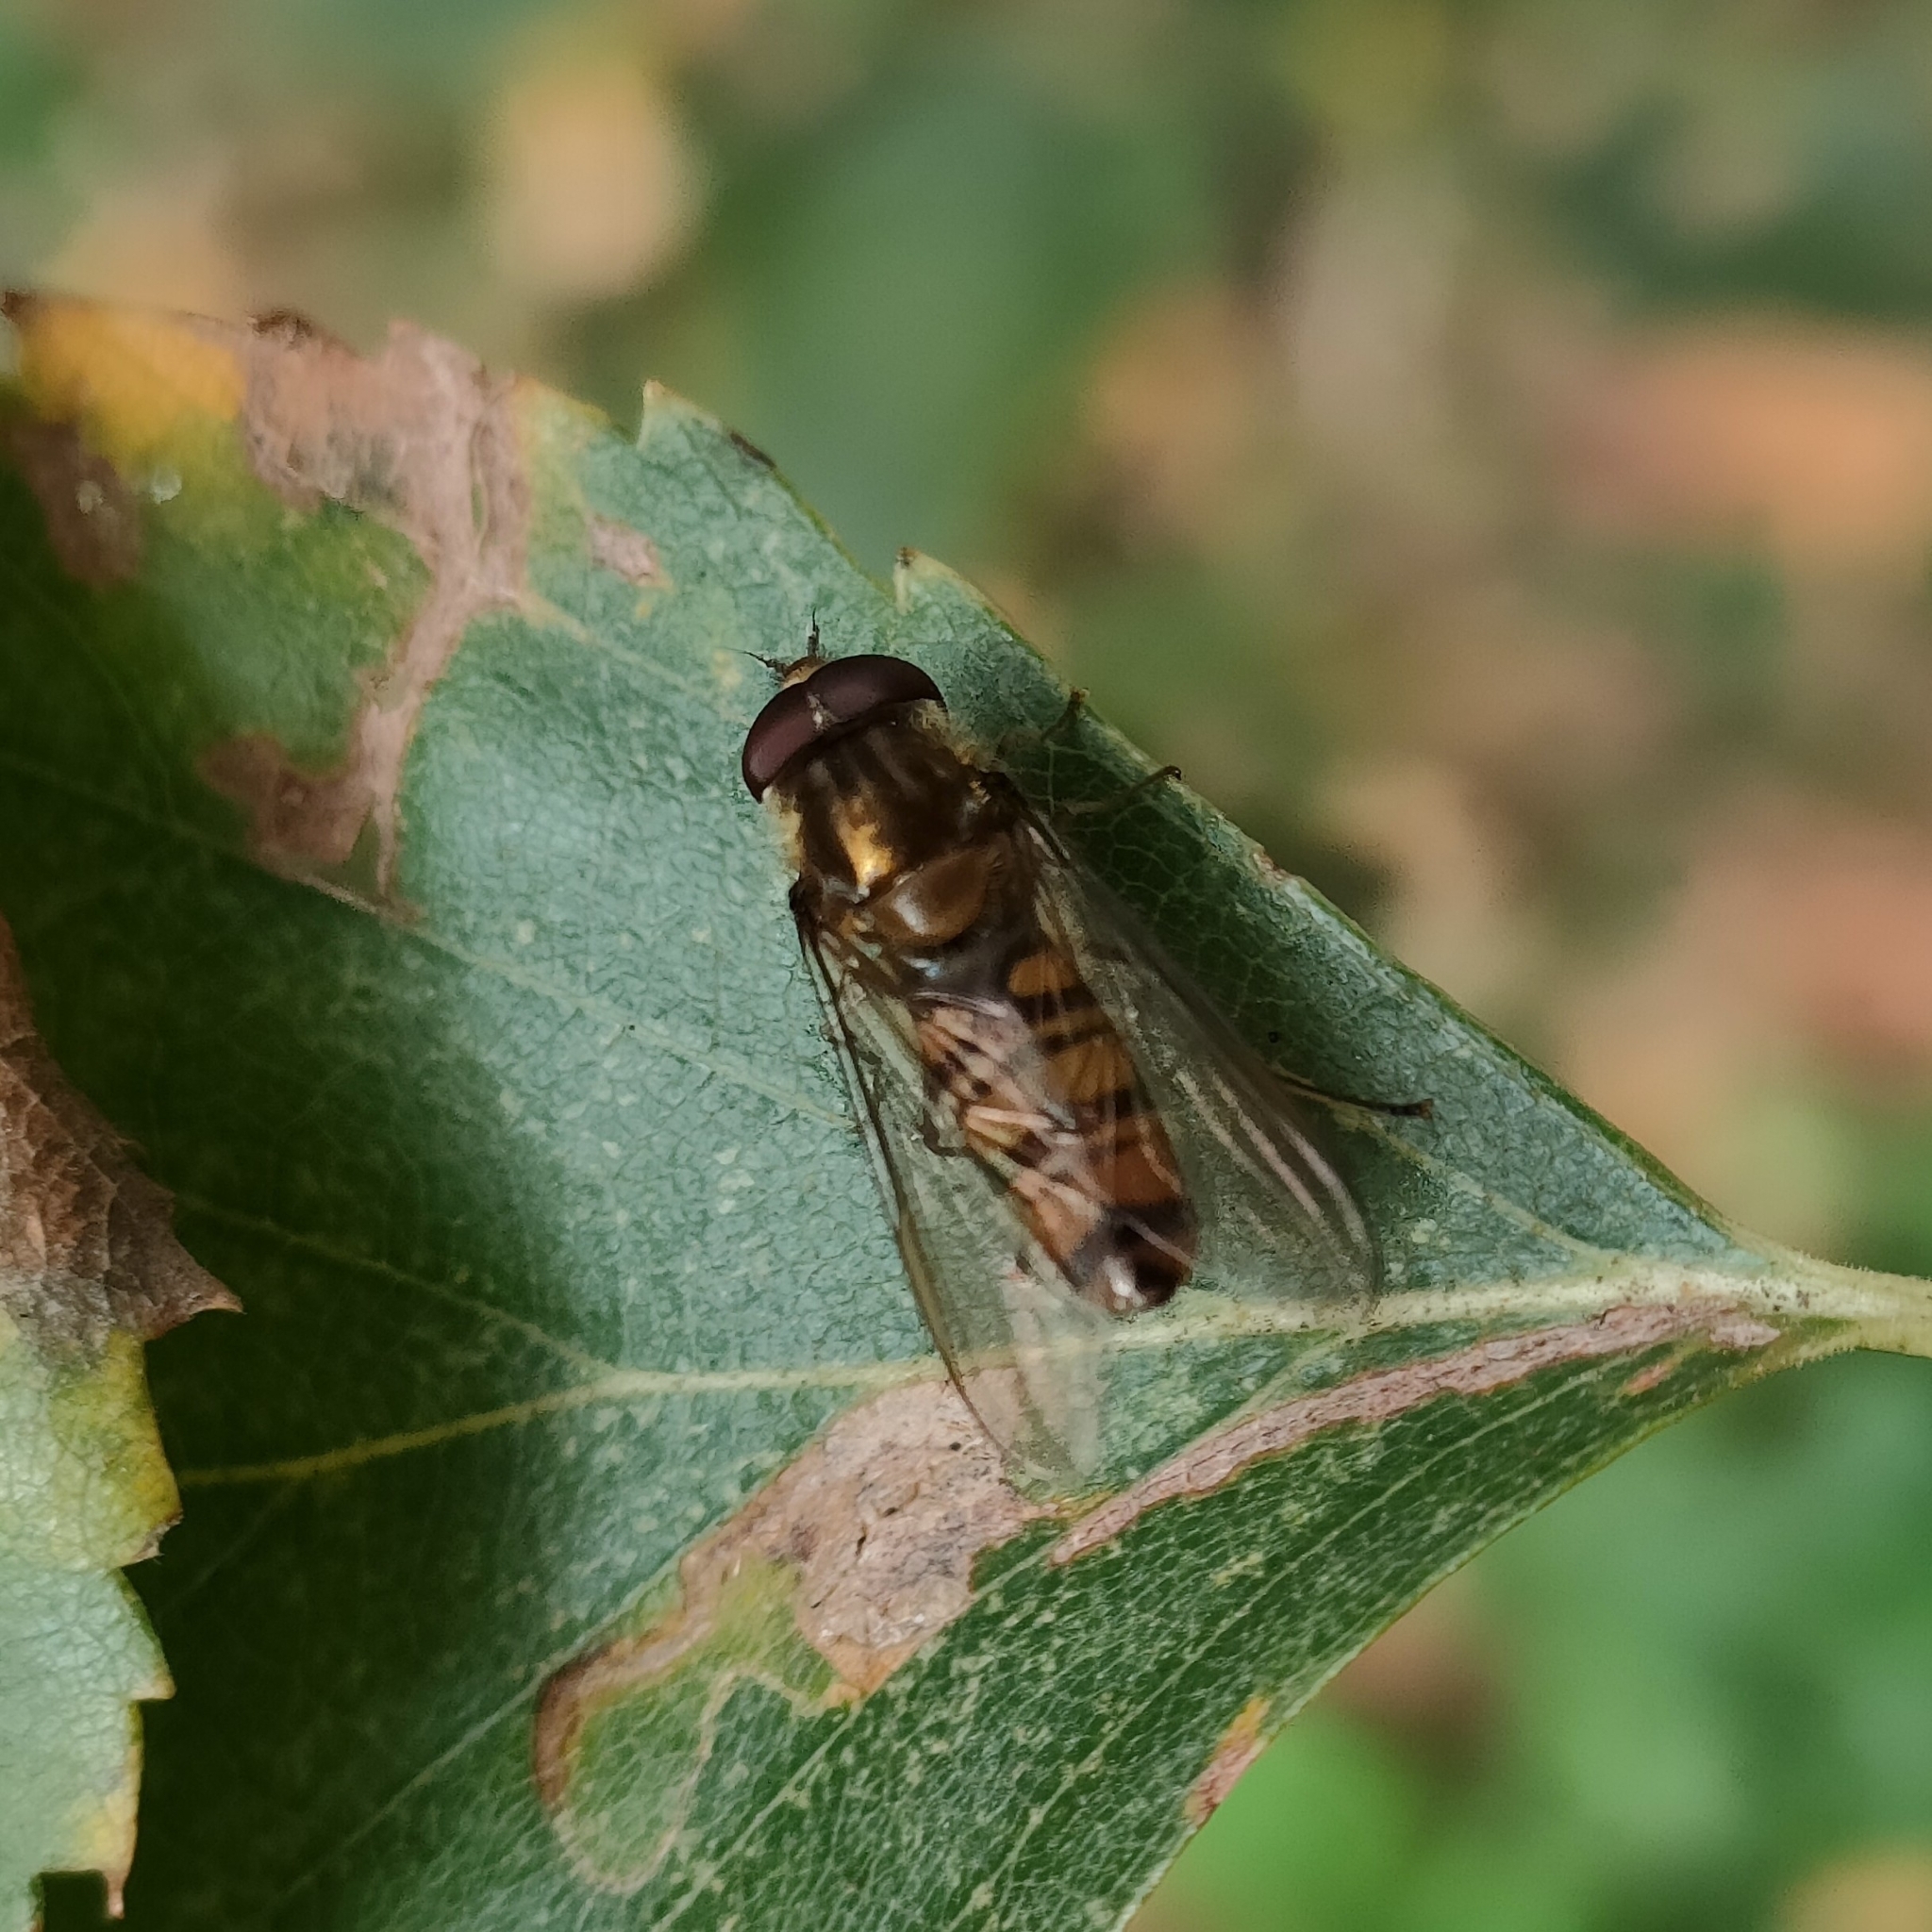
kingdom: Animalia
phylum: Arthropoda
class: Insecta
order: Diptera
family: Syrphidae
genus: Episyrphus
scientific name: Episyrphus balteatus
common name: Marmalade hoverfly
